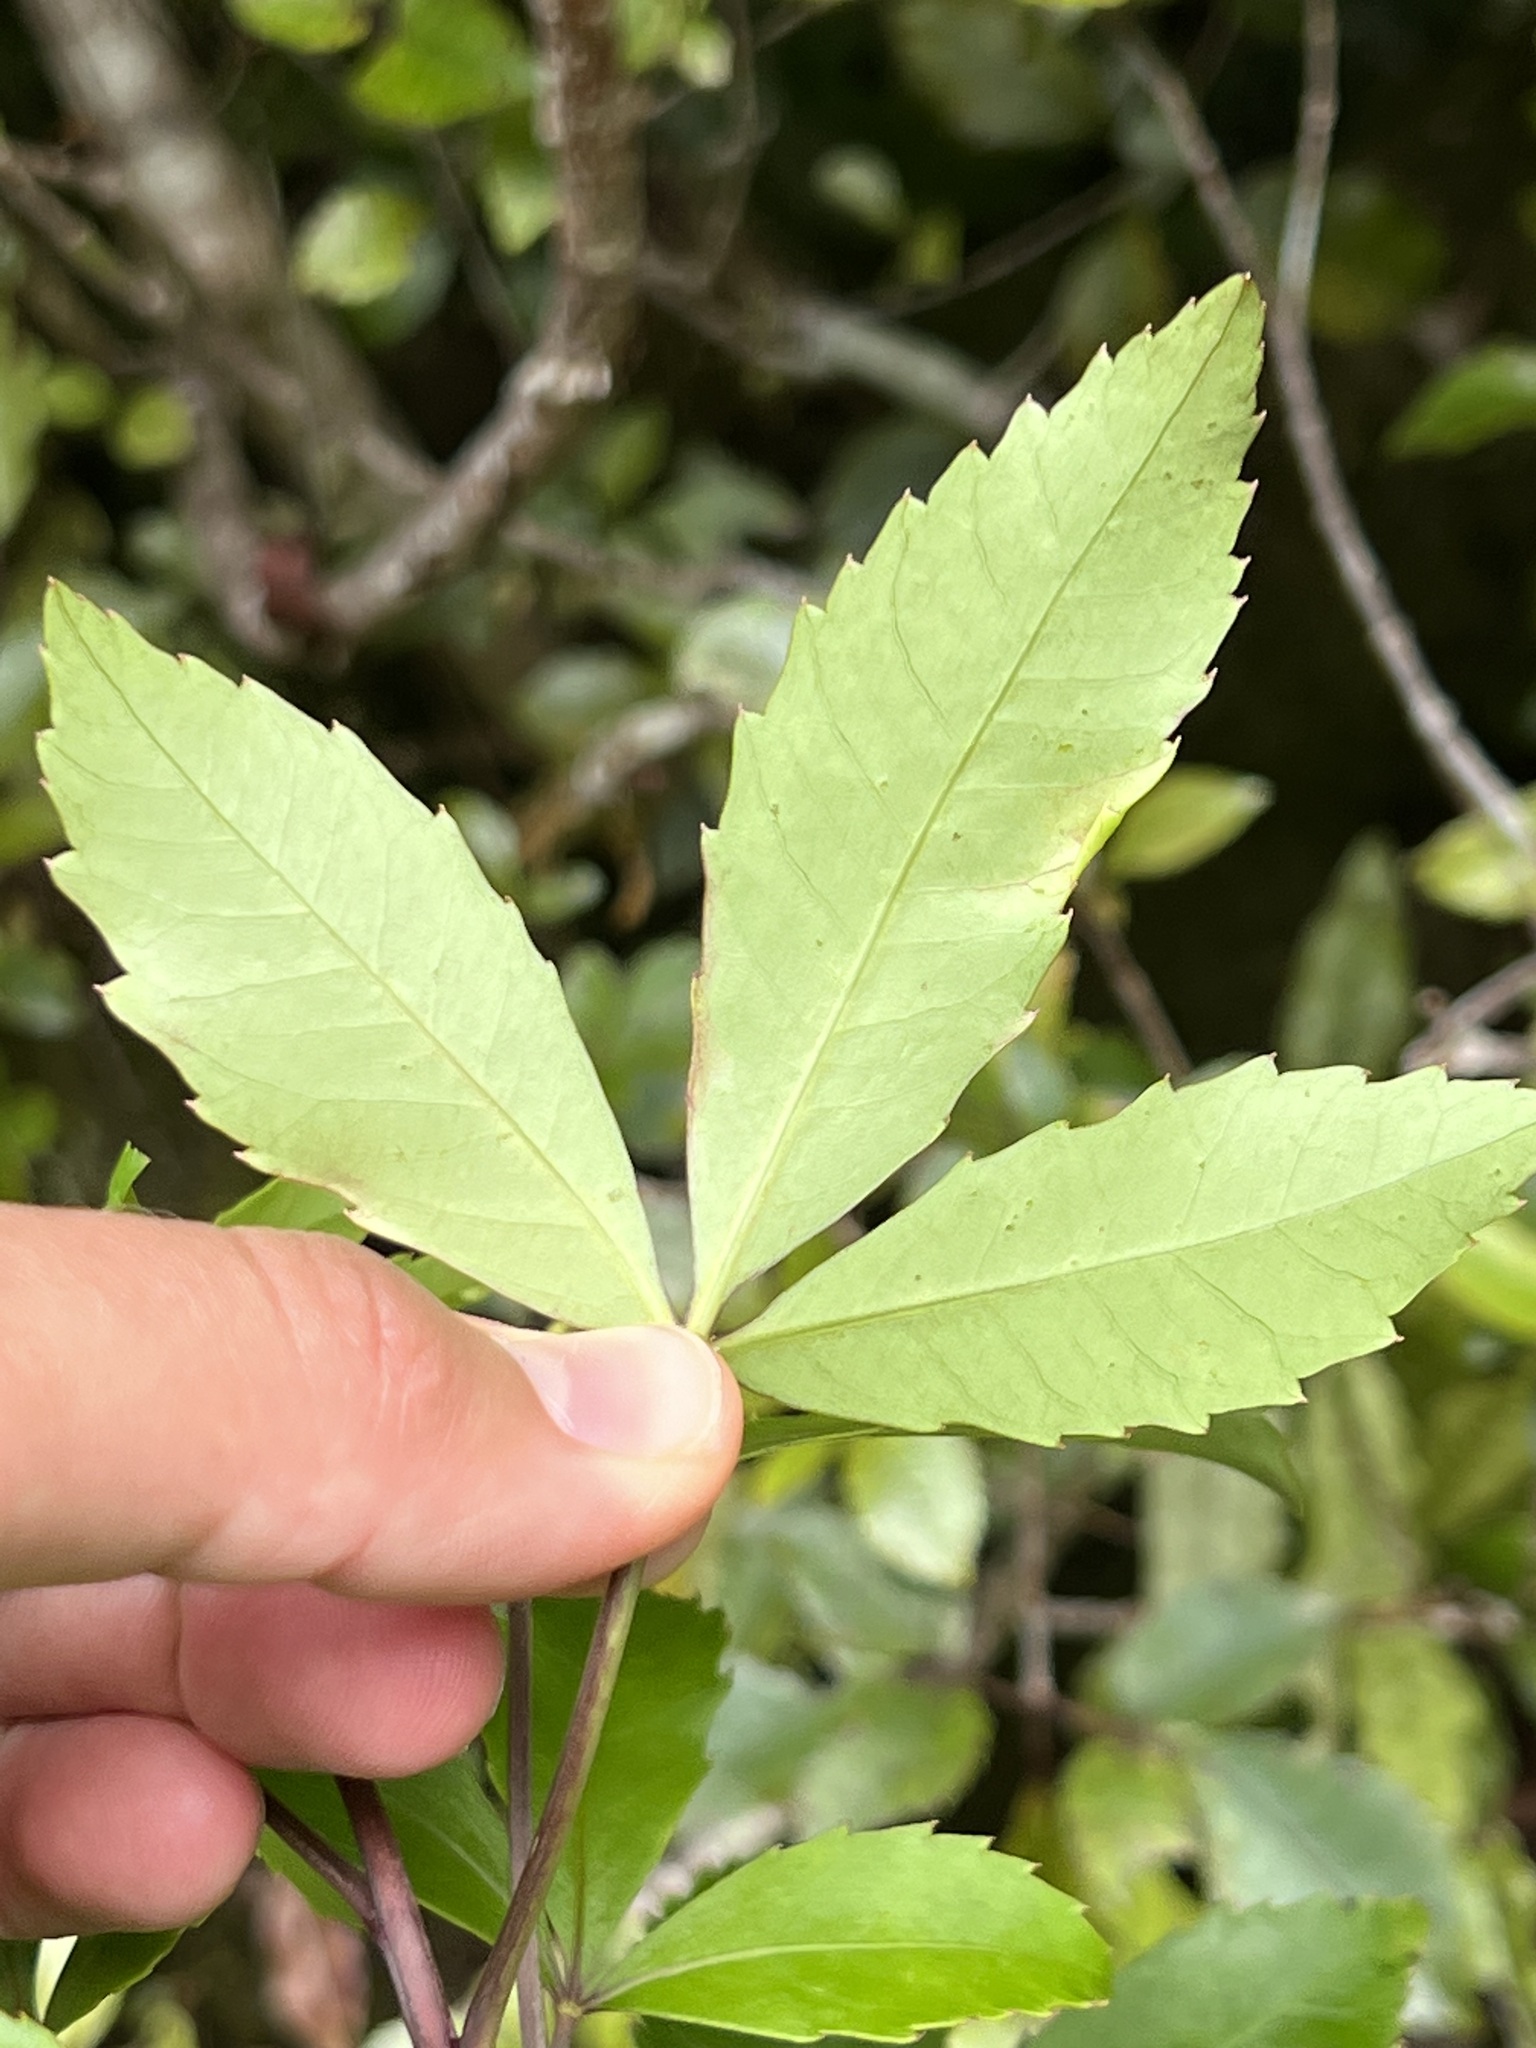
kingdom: Plantae
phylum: Tracheophyta
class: Magnoliopsida
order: Apiales
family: Araliaceae
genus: Raukaua
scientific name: Raukaua simplex
